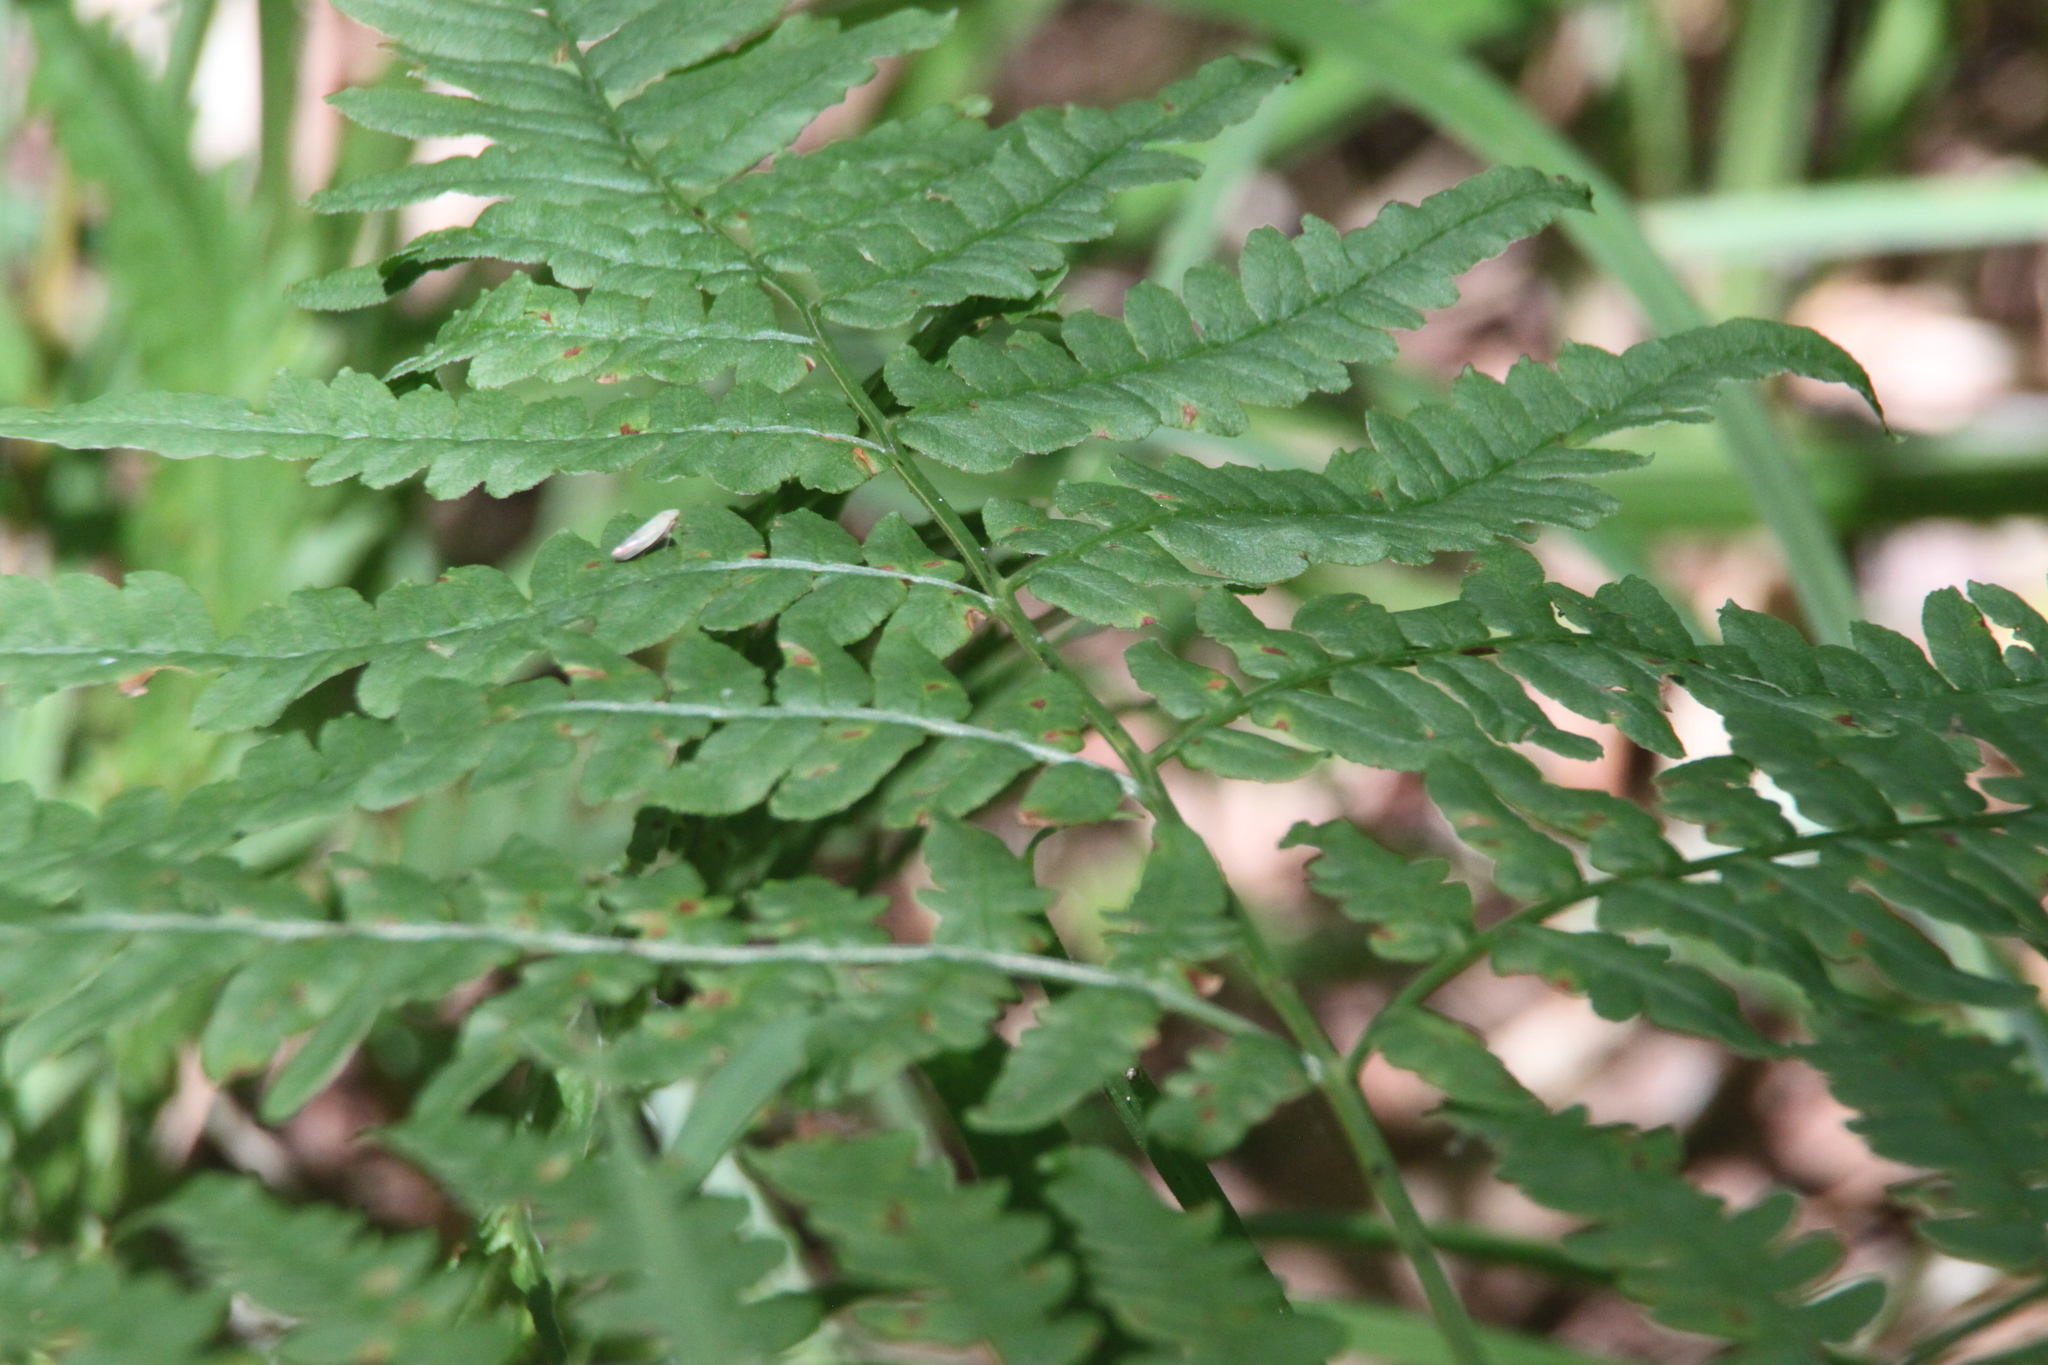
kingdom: Plantae
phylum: Tracheophyta
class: Polypodiopsida
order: Polypodiales
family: Dennstaedtiaceae
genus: Pteridium
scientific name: Pteridium aquilinum
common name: Bracken
